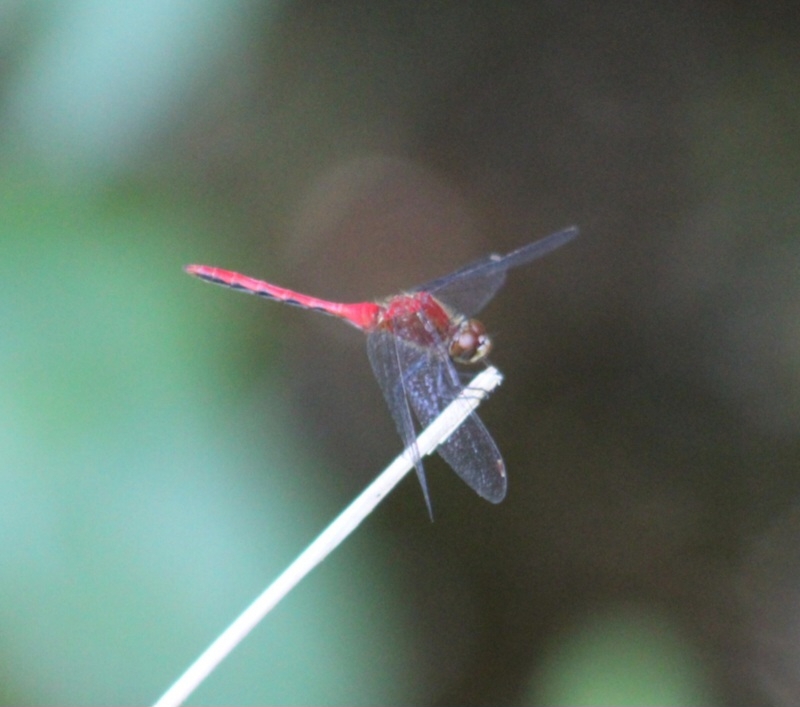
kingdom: Animalia
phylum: Arthropoda
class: Insecta
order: Odonata
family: Libellulidae
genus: Sympetrum
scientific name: Sympetrum obtrusum
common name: White-faced meadowhawk
